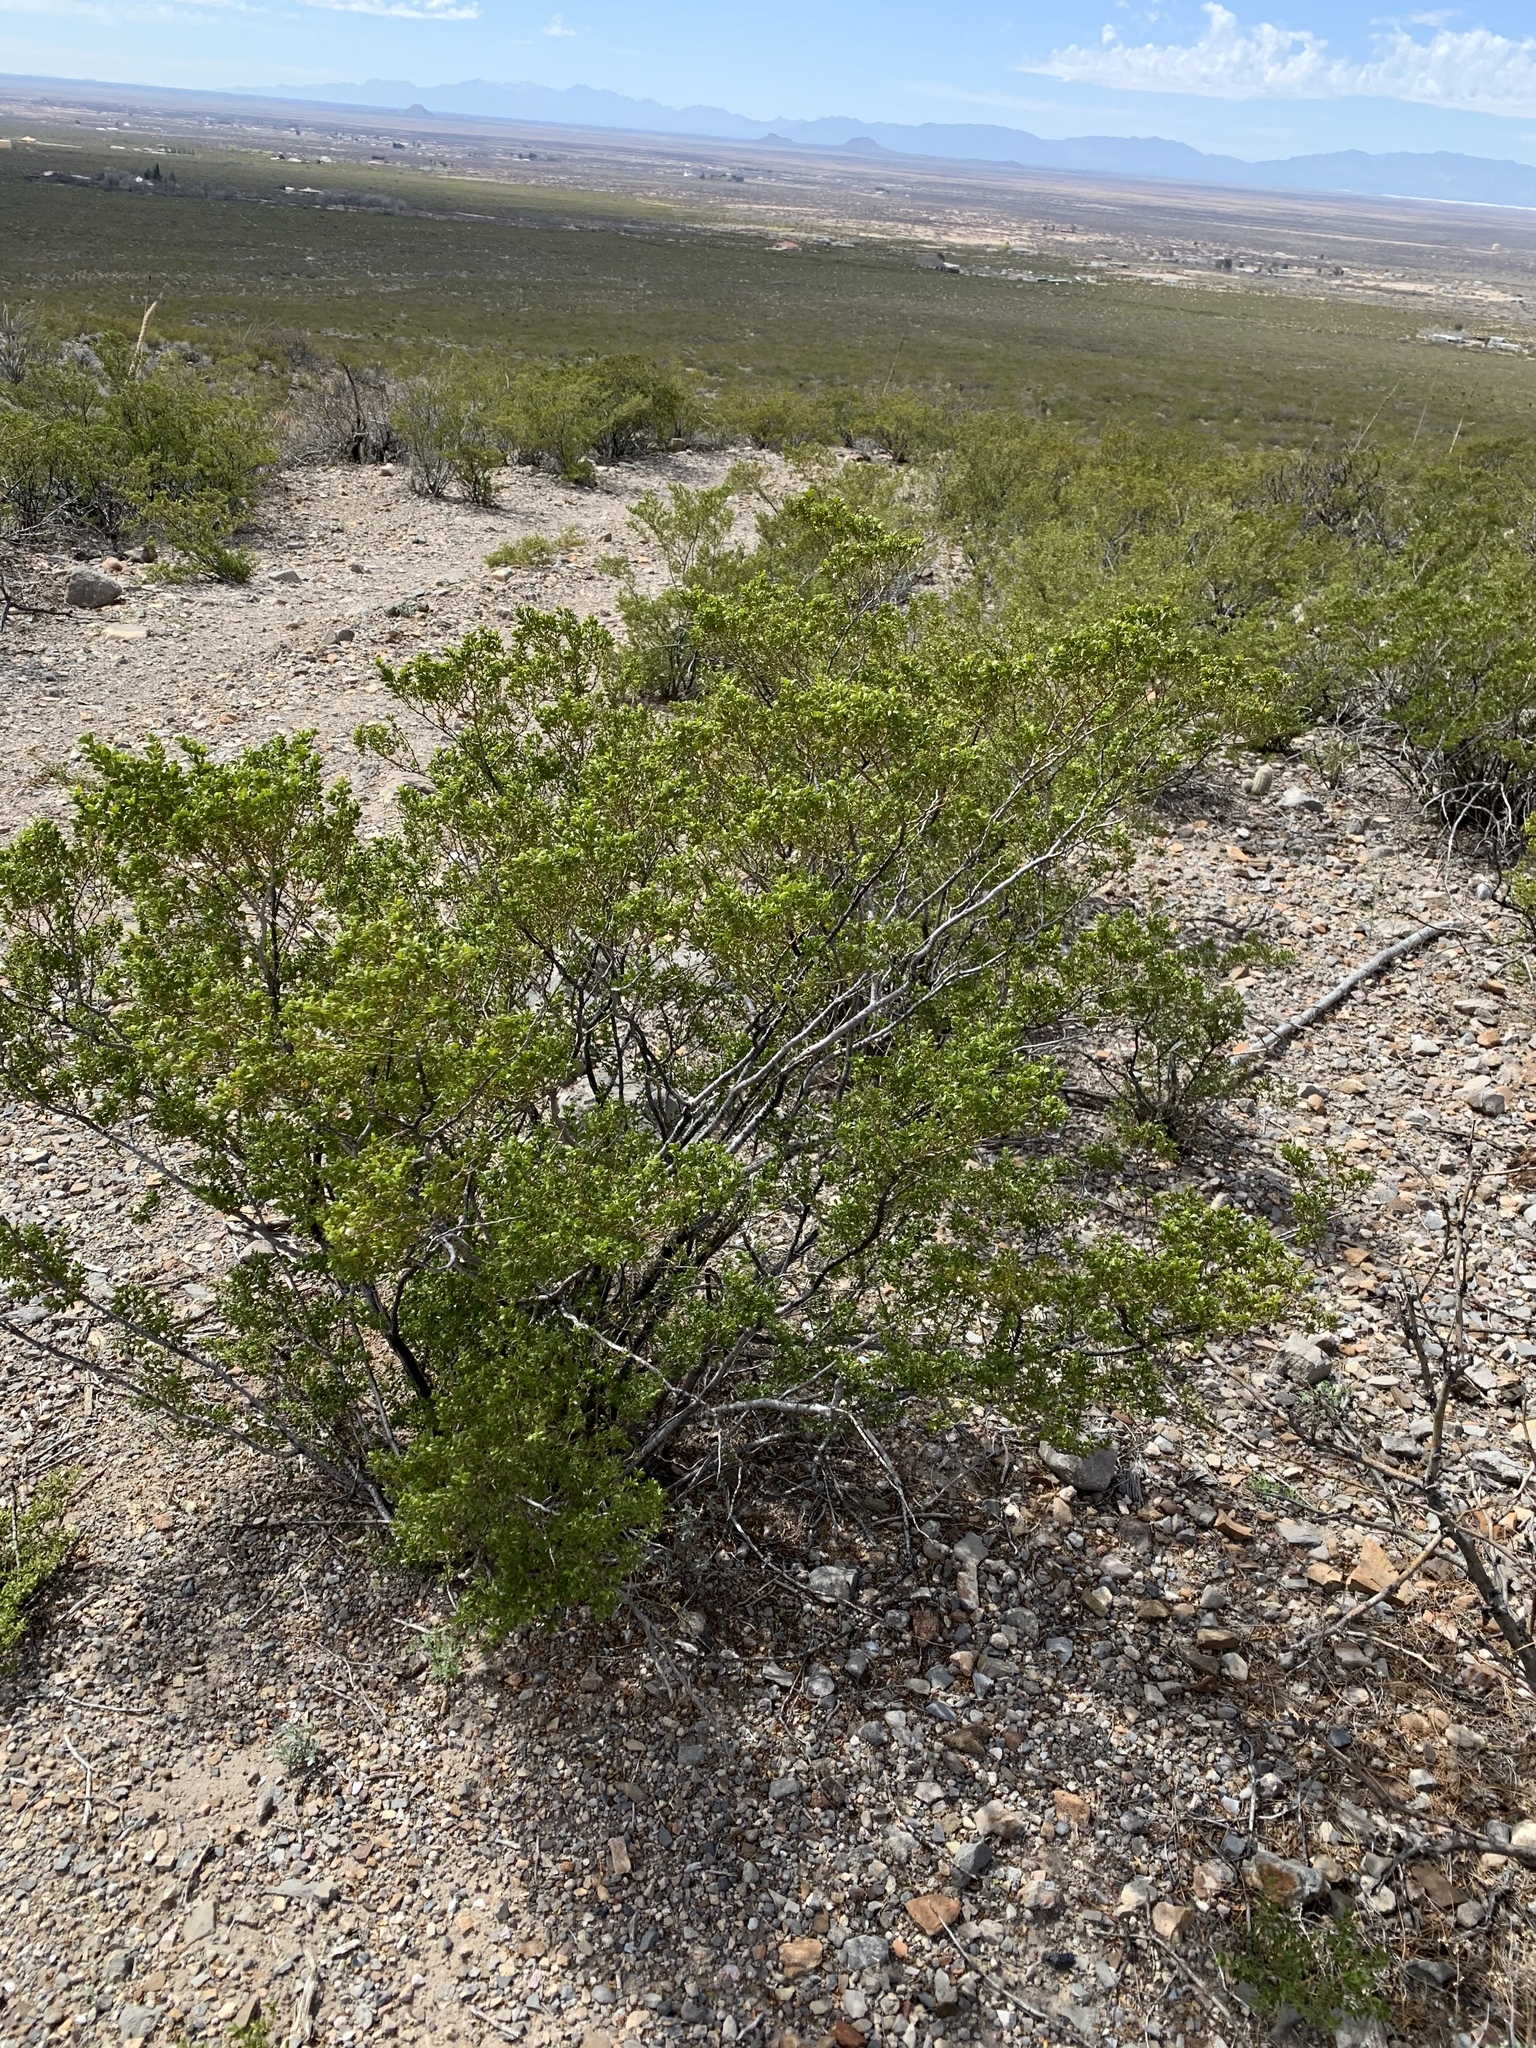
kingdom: Plantae
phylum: Tracheophyta
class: Magnoliopsida
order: Zygophyllales
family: Zygophyllaceae
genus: Larrea
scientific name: Larrea tridentata
